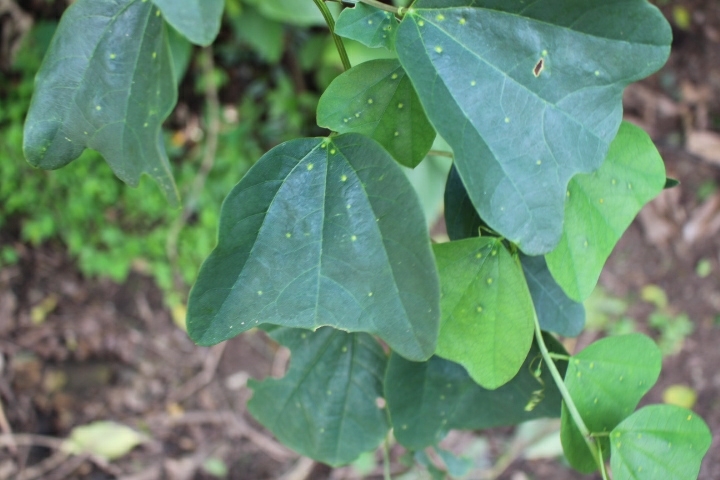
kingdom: Plantae
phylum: Tracheophyta
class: Magnoliopsida
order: Malpighiales
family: Passifloraceae
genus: Passiflora
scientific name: Passiflora biflora
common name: Twoflower passionflower
